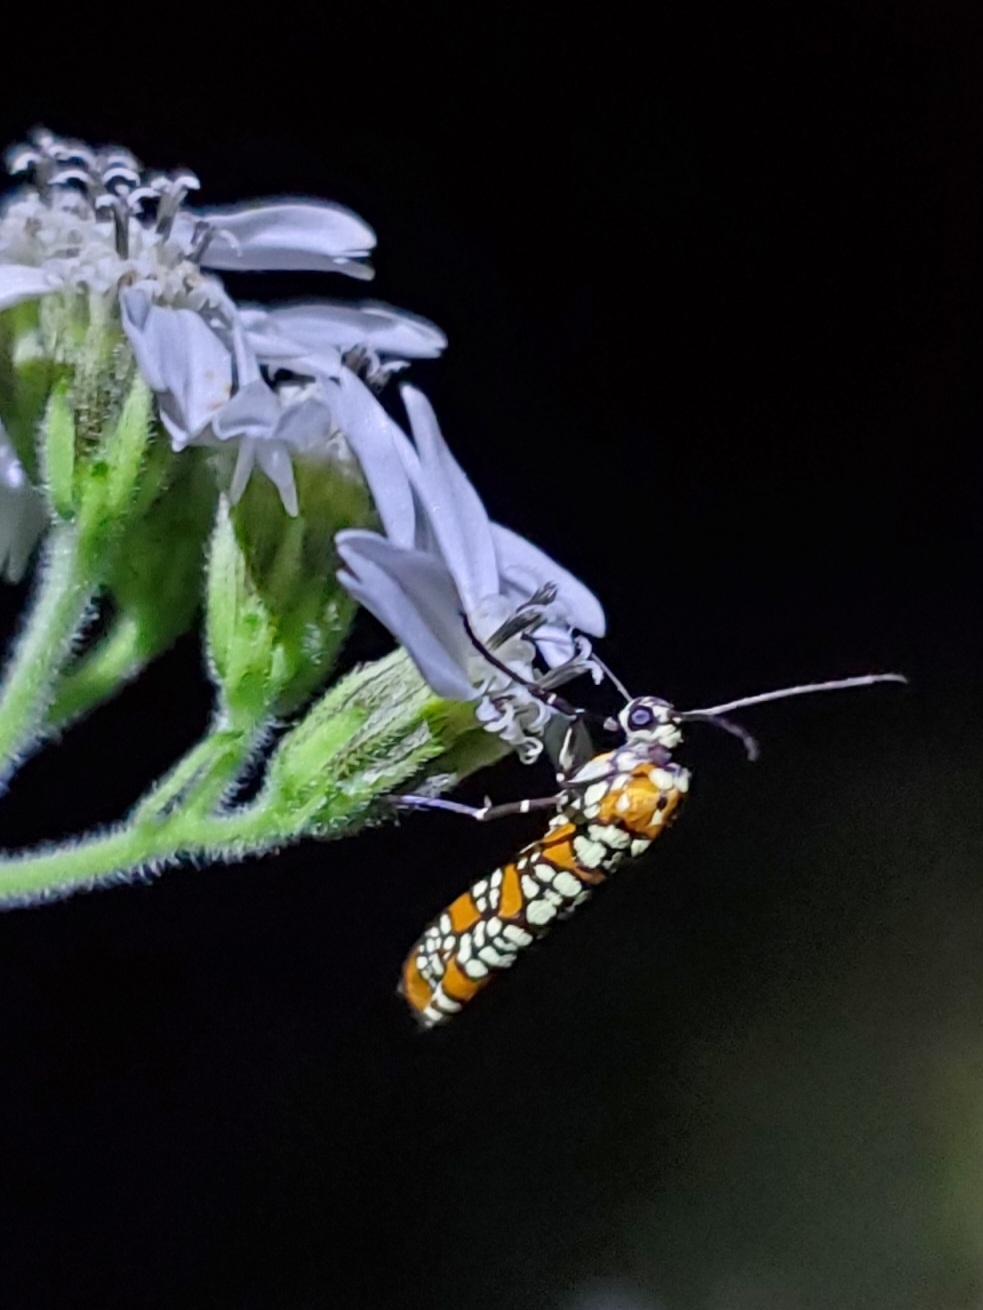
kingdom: Animalia
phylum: Arthropoda
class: Insecta
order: Lepidoptera
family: Attevidae
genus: Atteva
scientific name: Atteva punctella
